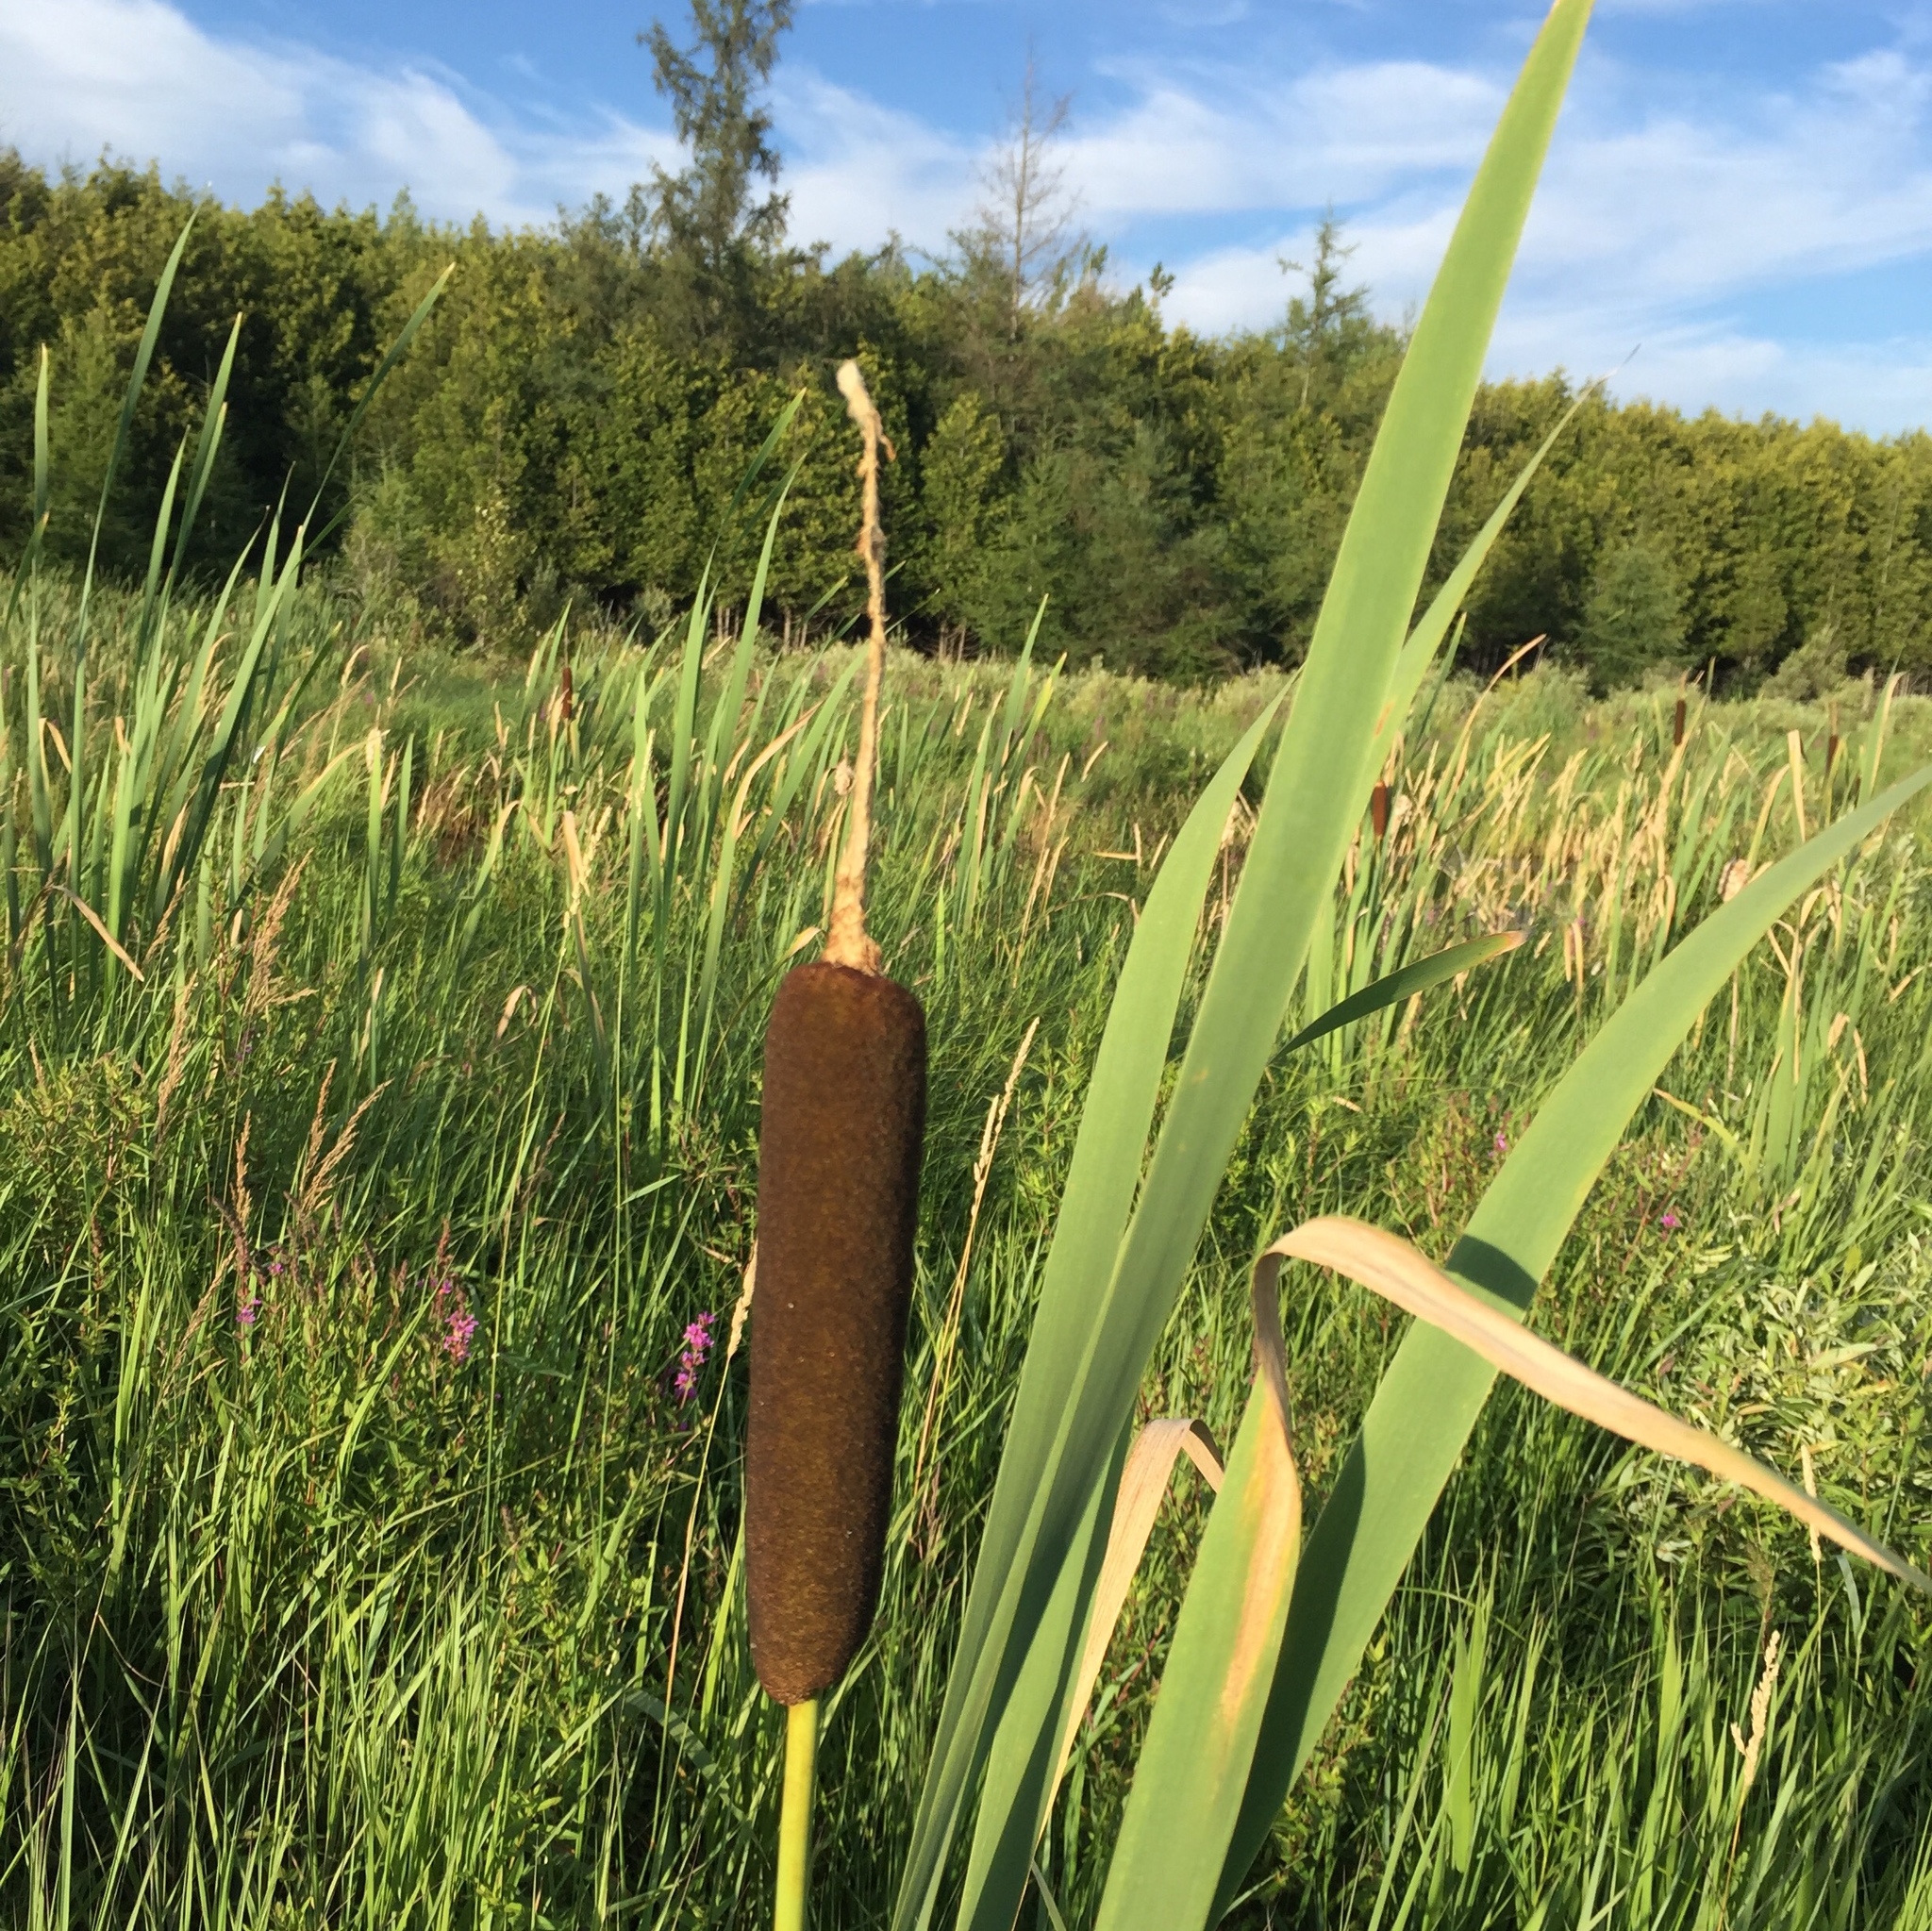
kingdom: Plantae
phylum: Tracheophyta
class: Liliopsida
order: Poales
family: Typhaceae
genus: Typha
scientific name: Typha latifolia
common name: Broadleaf cattail
